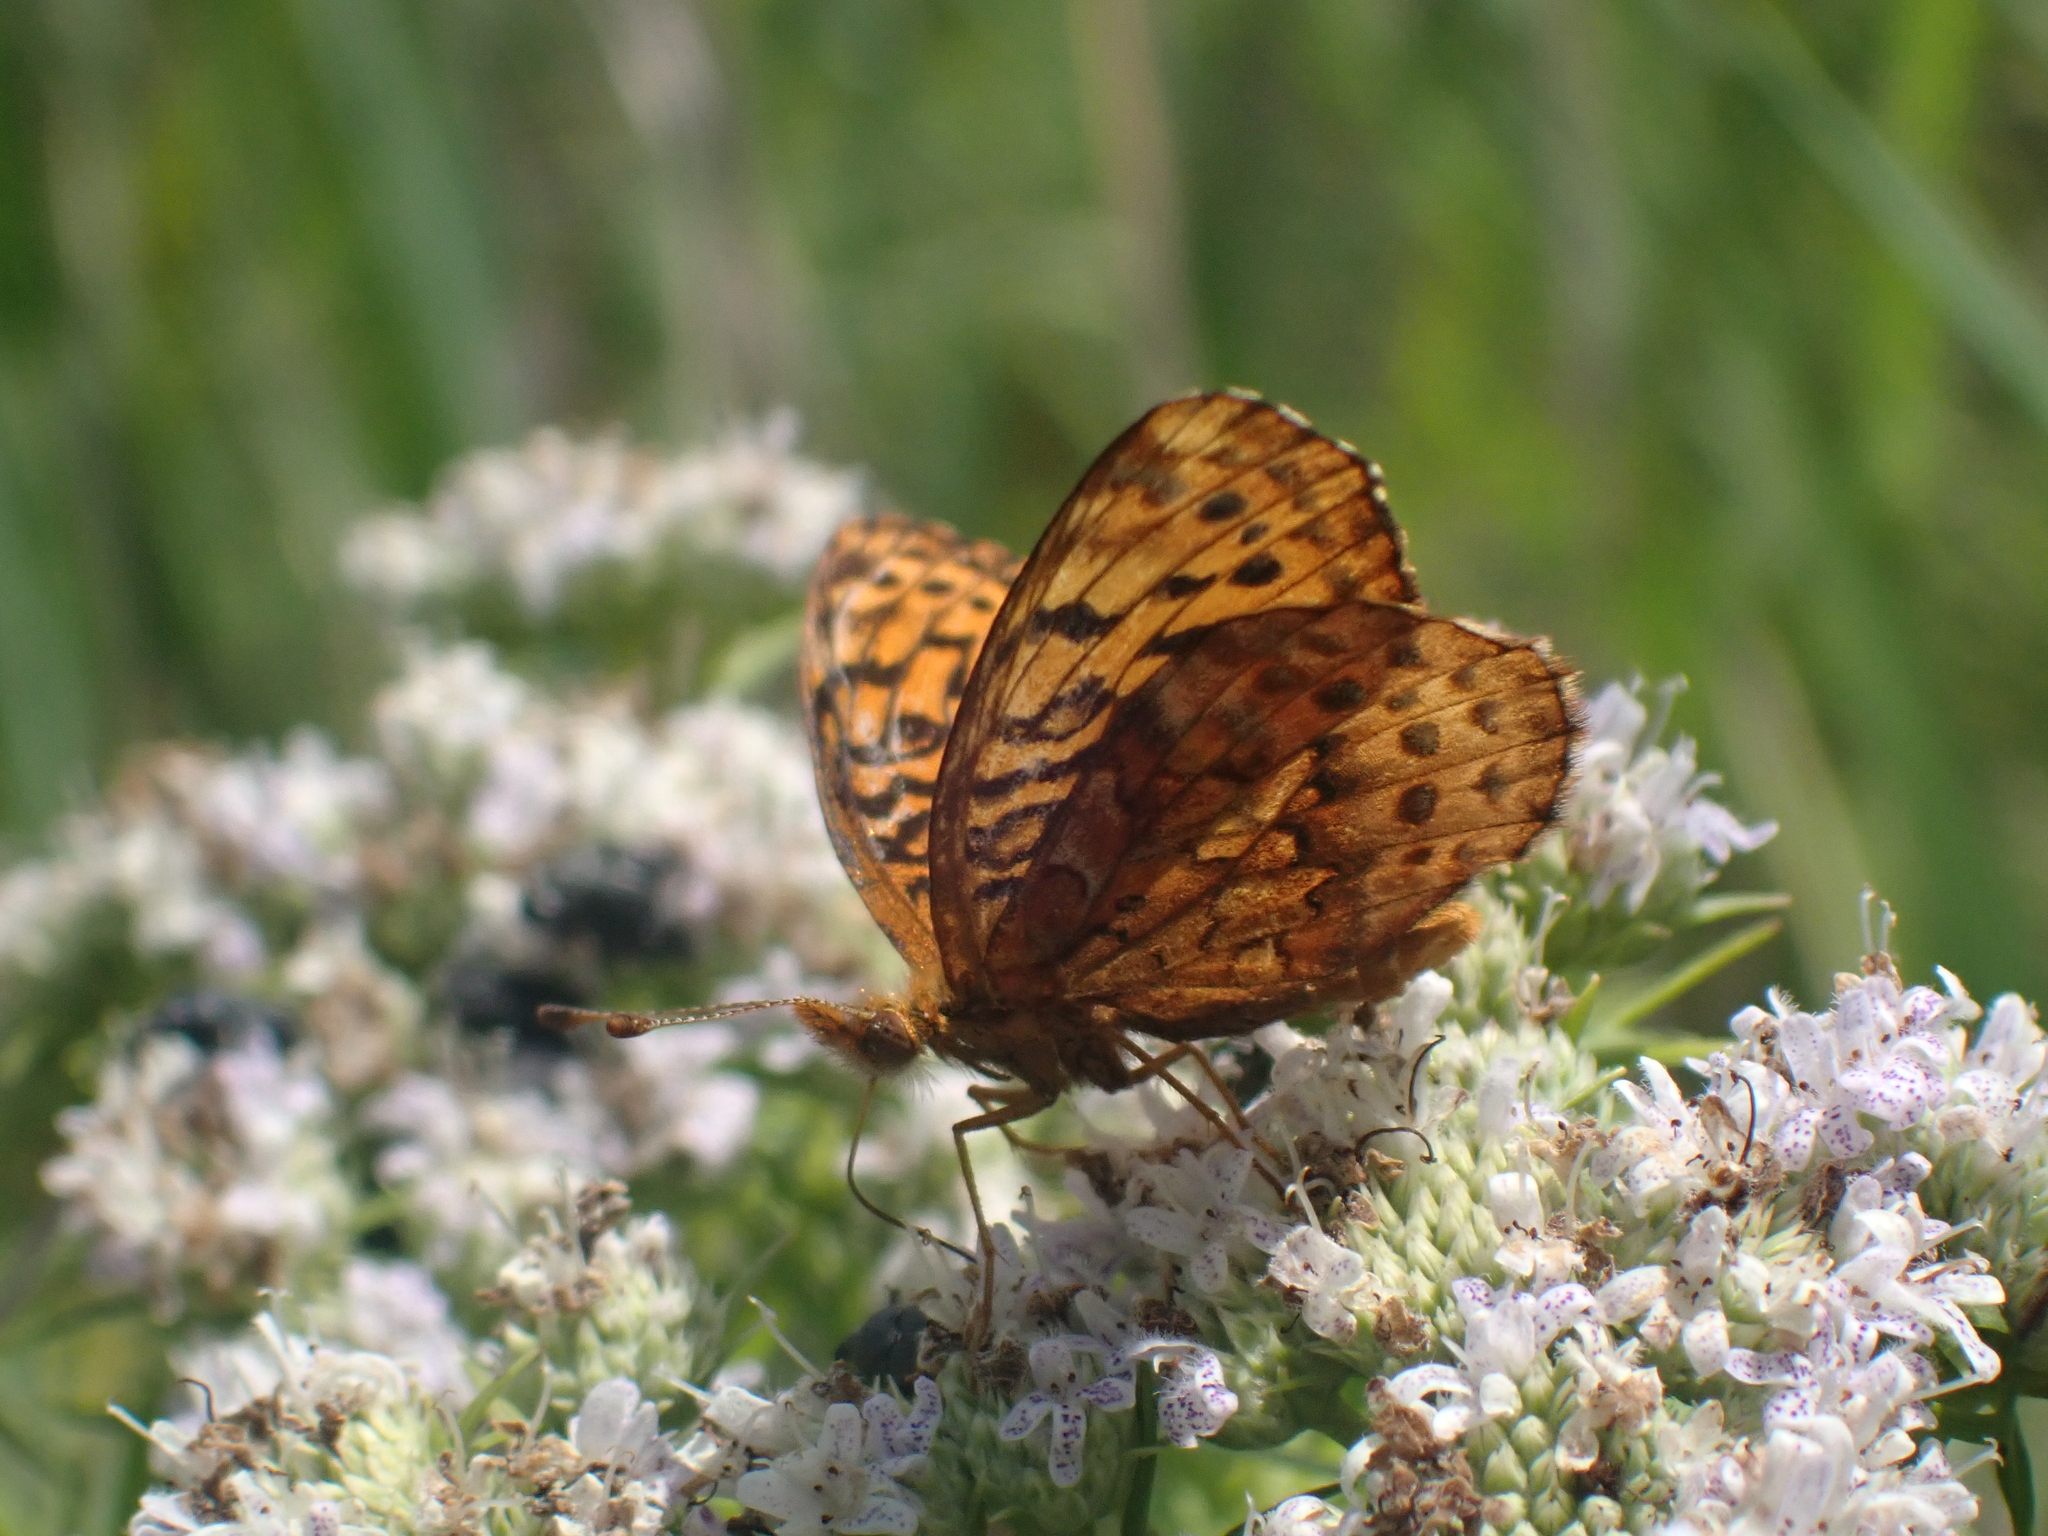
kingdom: Animalia
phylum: Arthropoda
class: Insecta
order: Lepidoptera
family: Nymphalidae
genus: Clossiana
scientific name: Clossiana toddi
